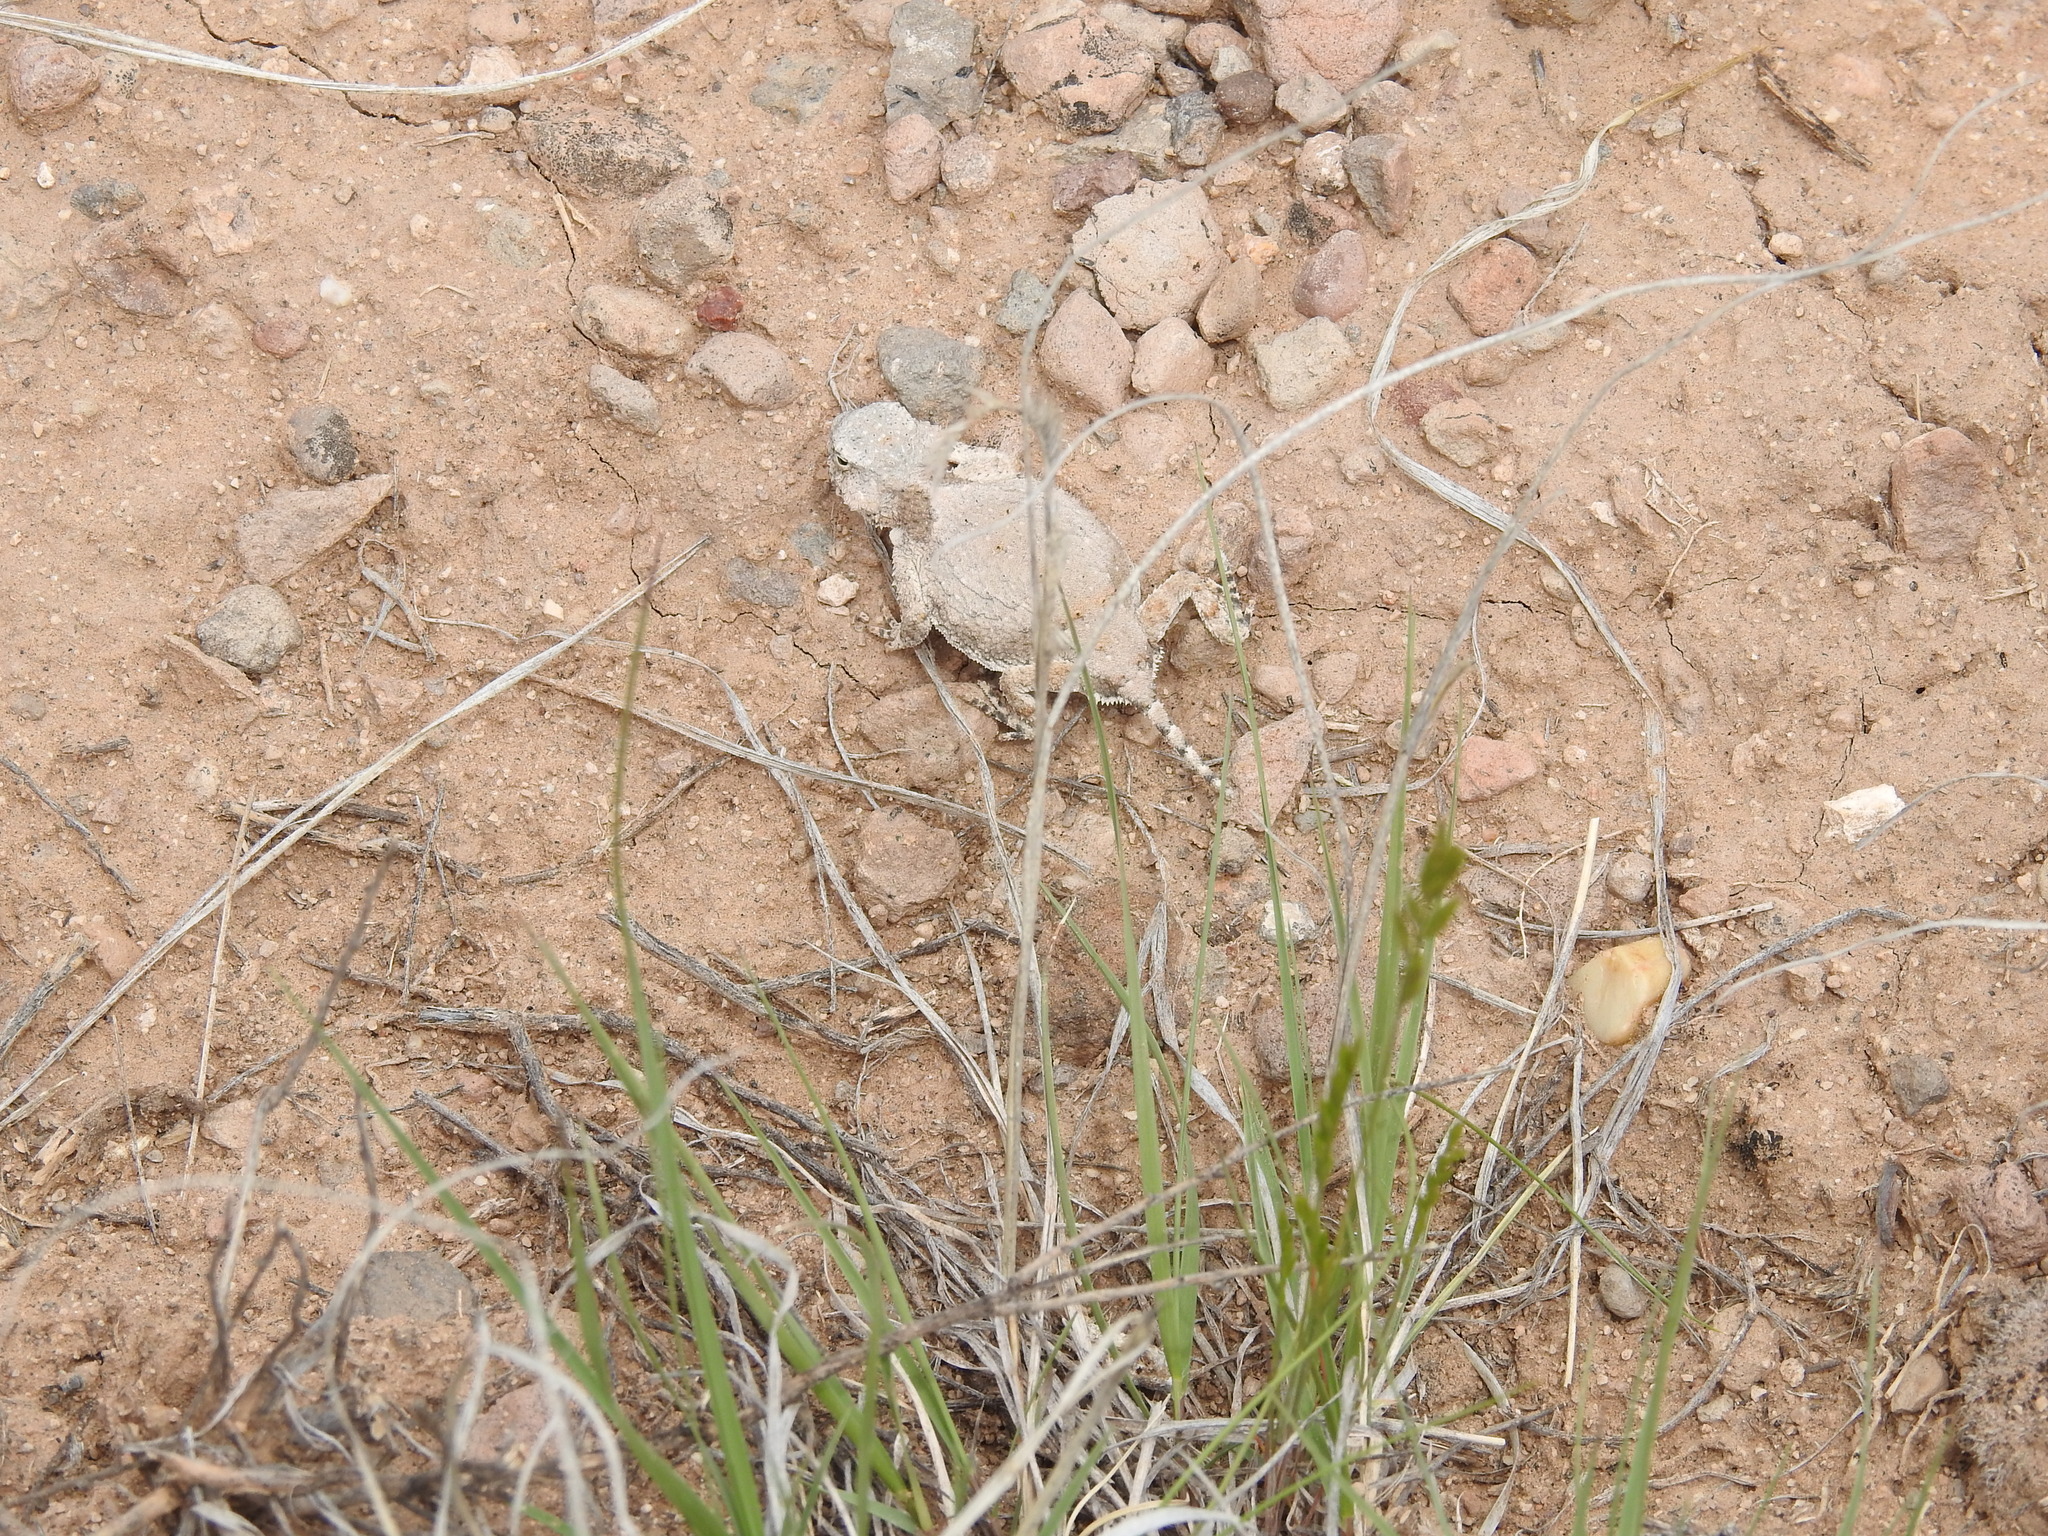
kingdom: Animalia
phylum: Chordata
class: Squamata
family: Phrynosomatidae
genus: Phrynosoma
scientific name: Phrynosoma modestum
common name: Roundtail horned lizard
